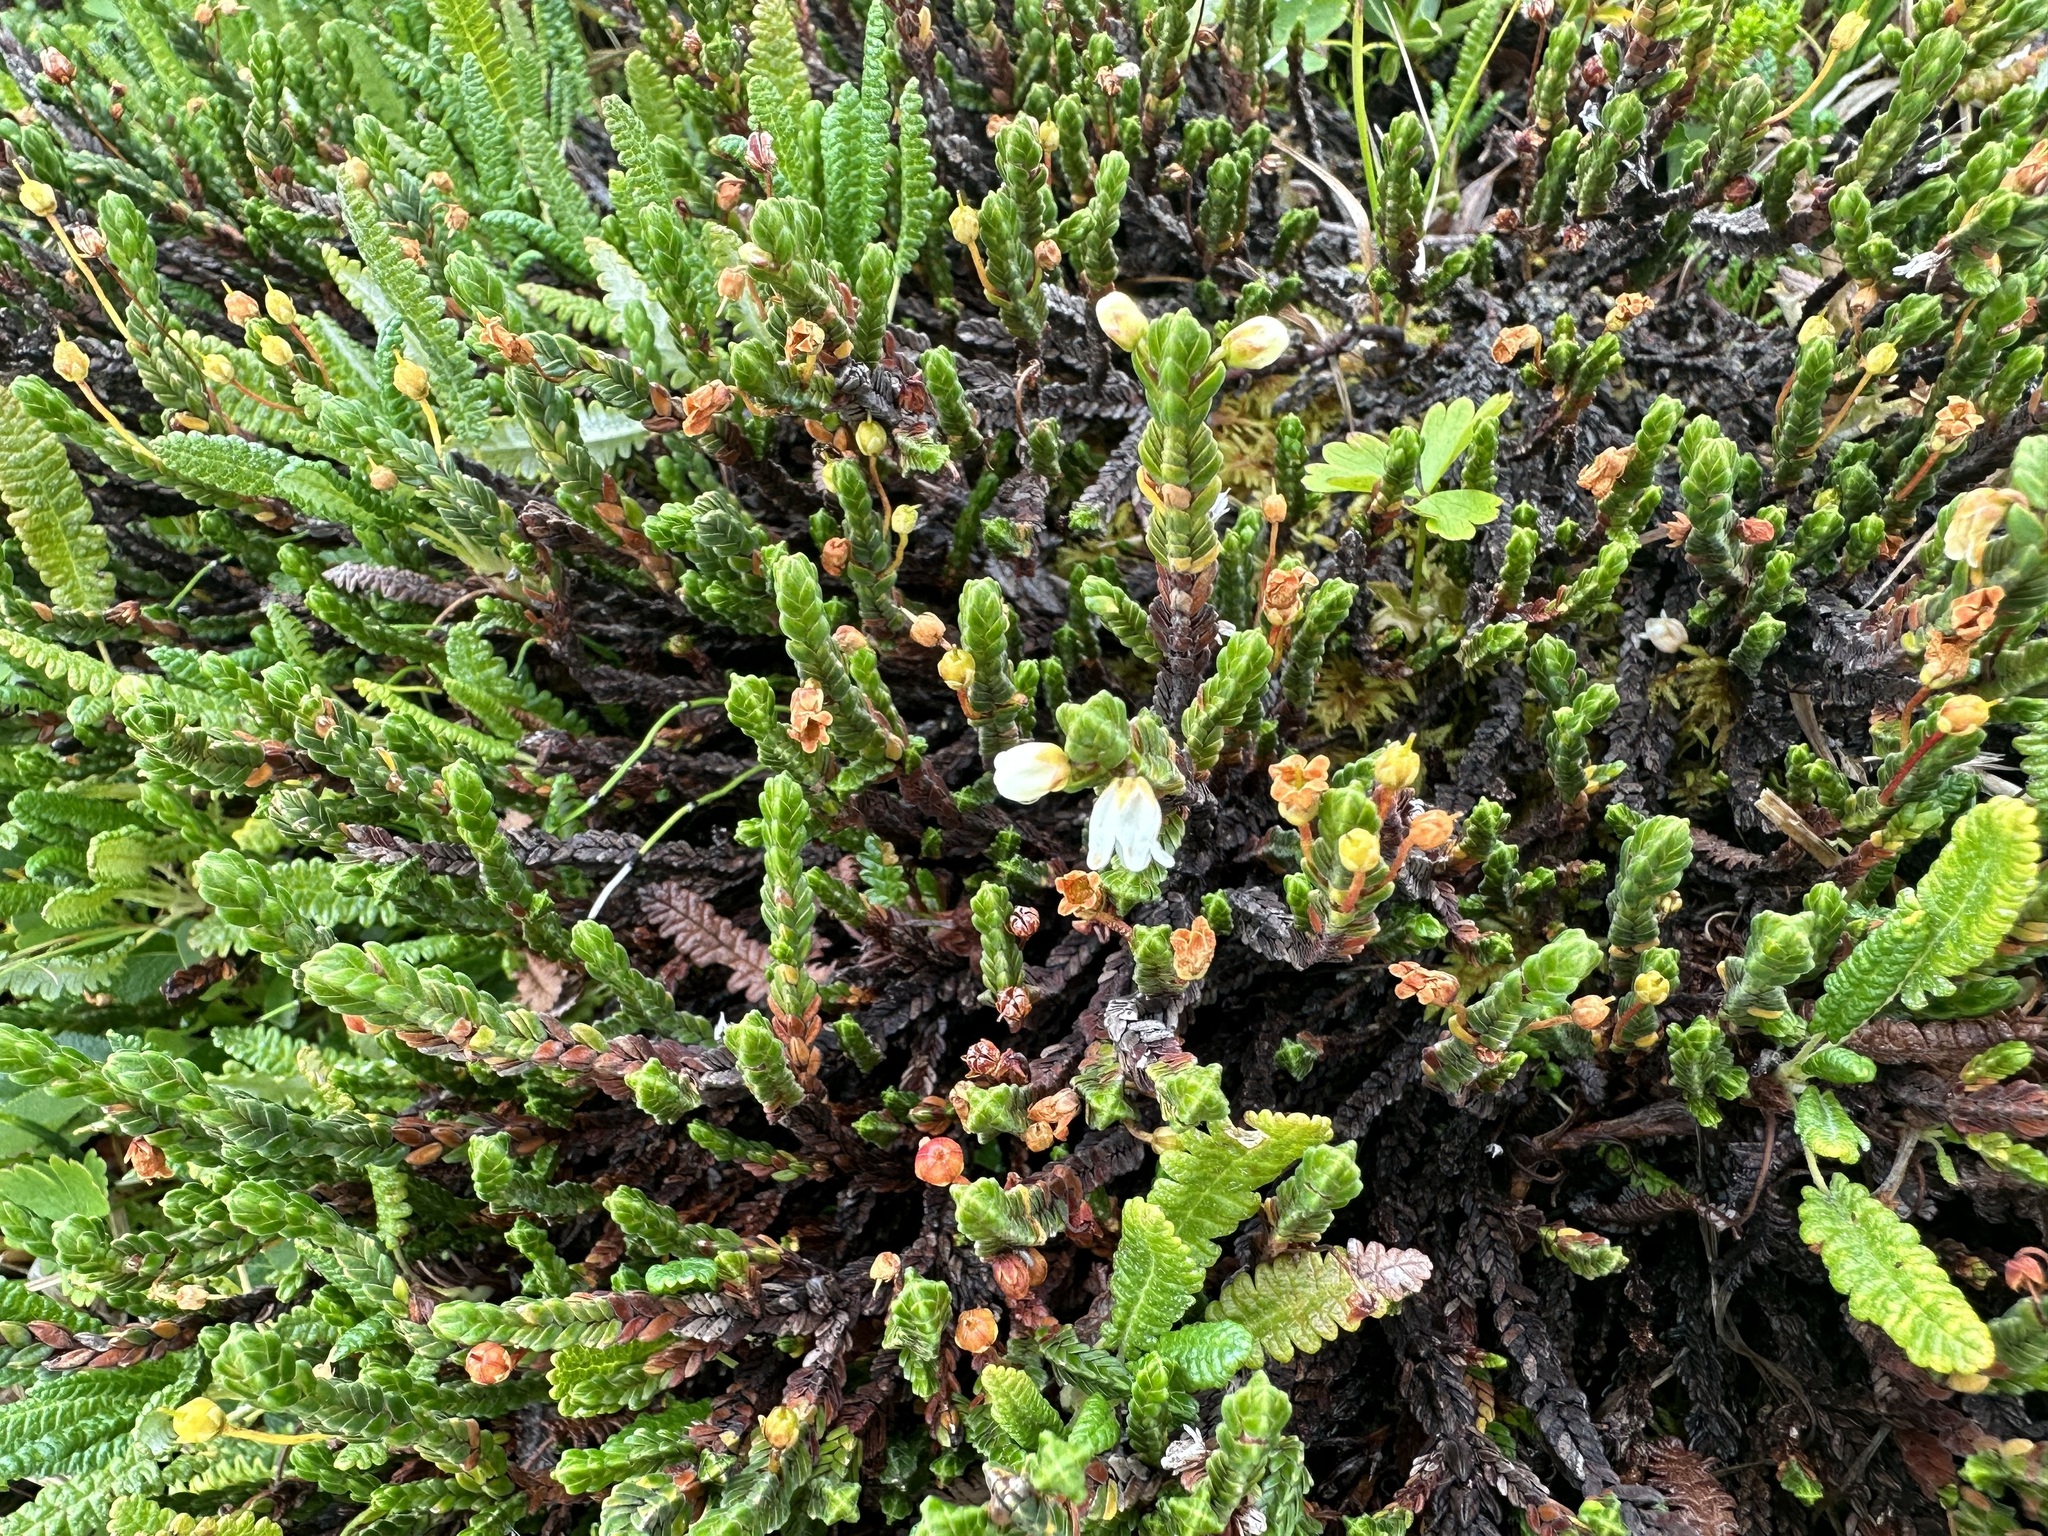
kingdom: Plantae
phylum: Tracheophyta
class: Magnoliopsida
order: Ericales
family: Ericaceae
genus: Cassiope
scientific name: Cassiope tetragona
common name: Arctic bell heather
